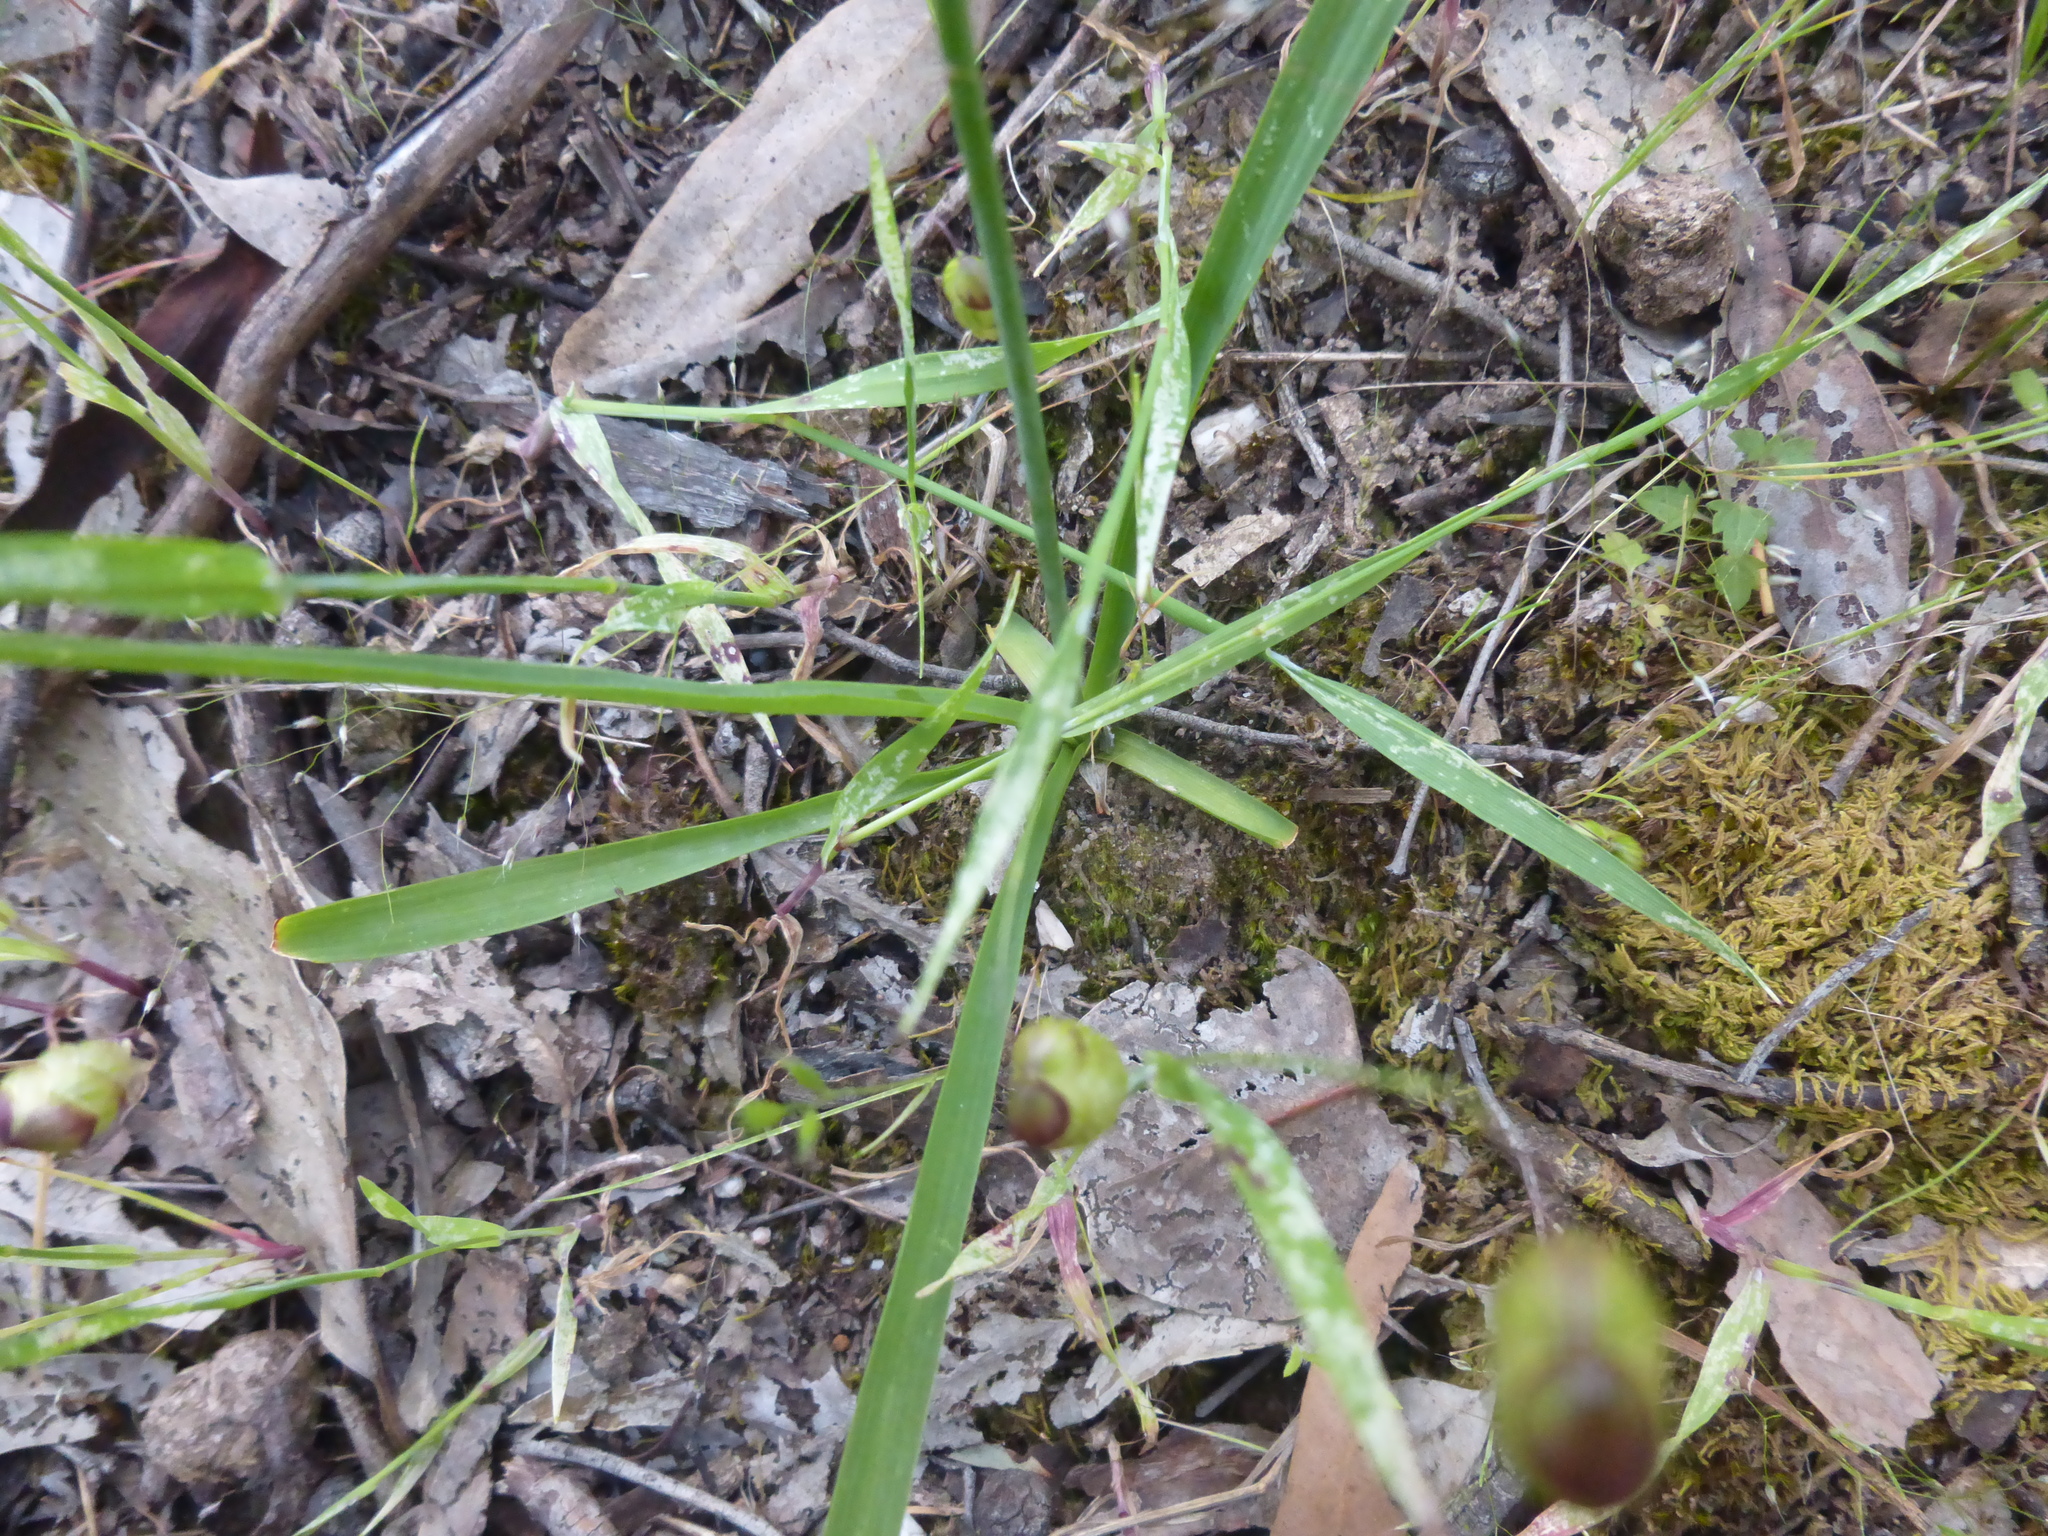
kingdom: Plantae
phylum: Tracheophyta
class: Liliopsida
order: Asparagales
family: Asparagaceae
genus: Arthropodium
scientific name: Arthropodium strictum
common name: Chocolate-lily
